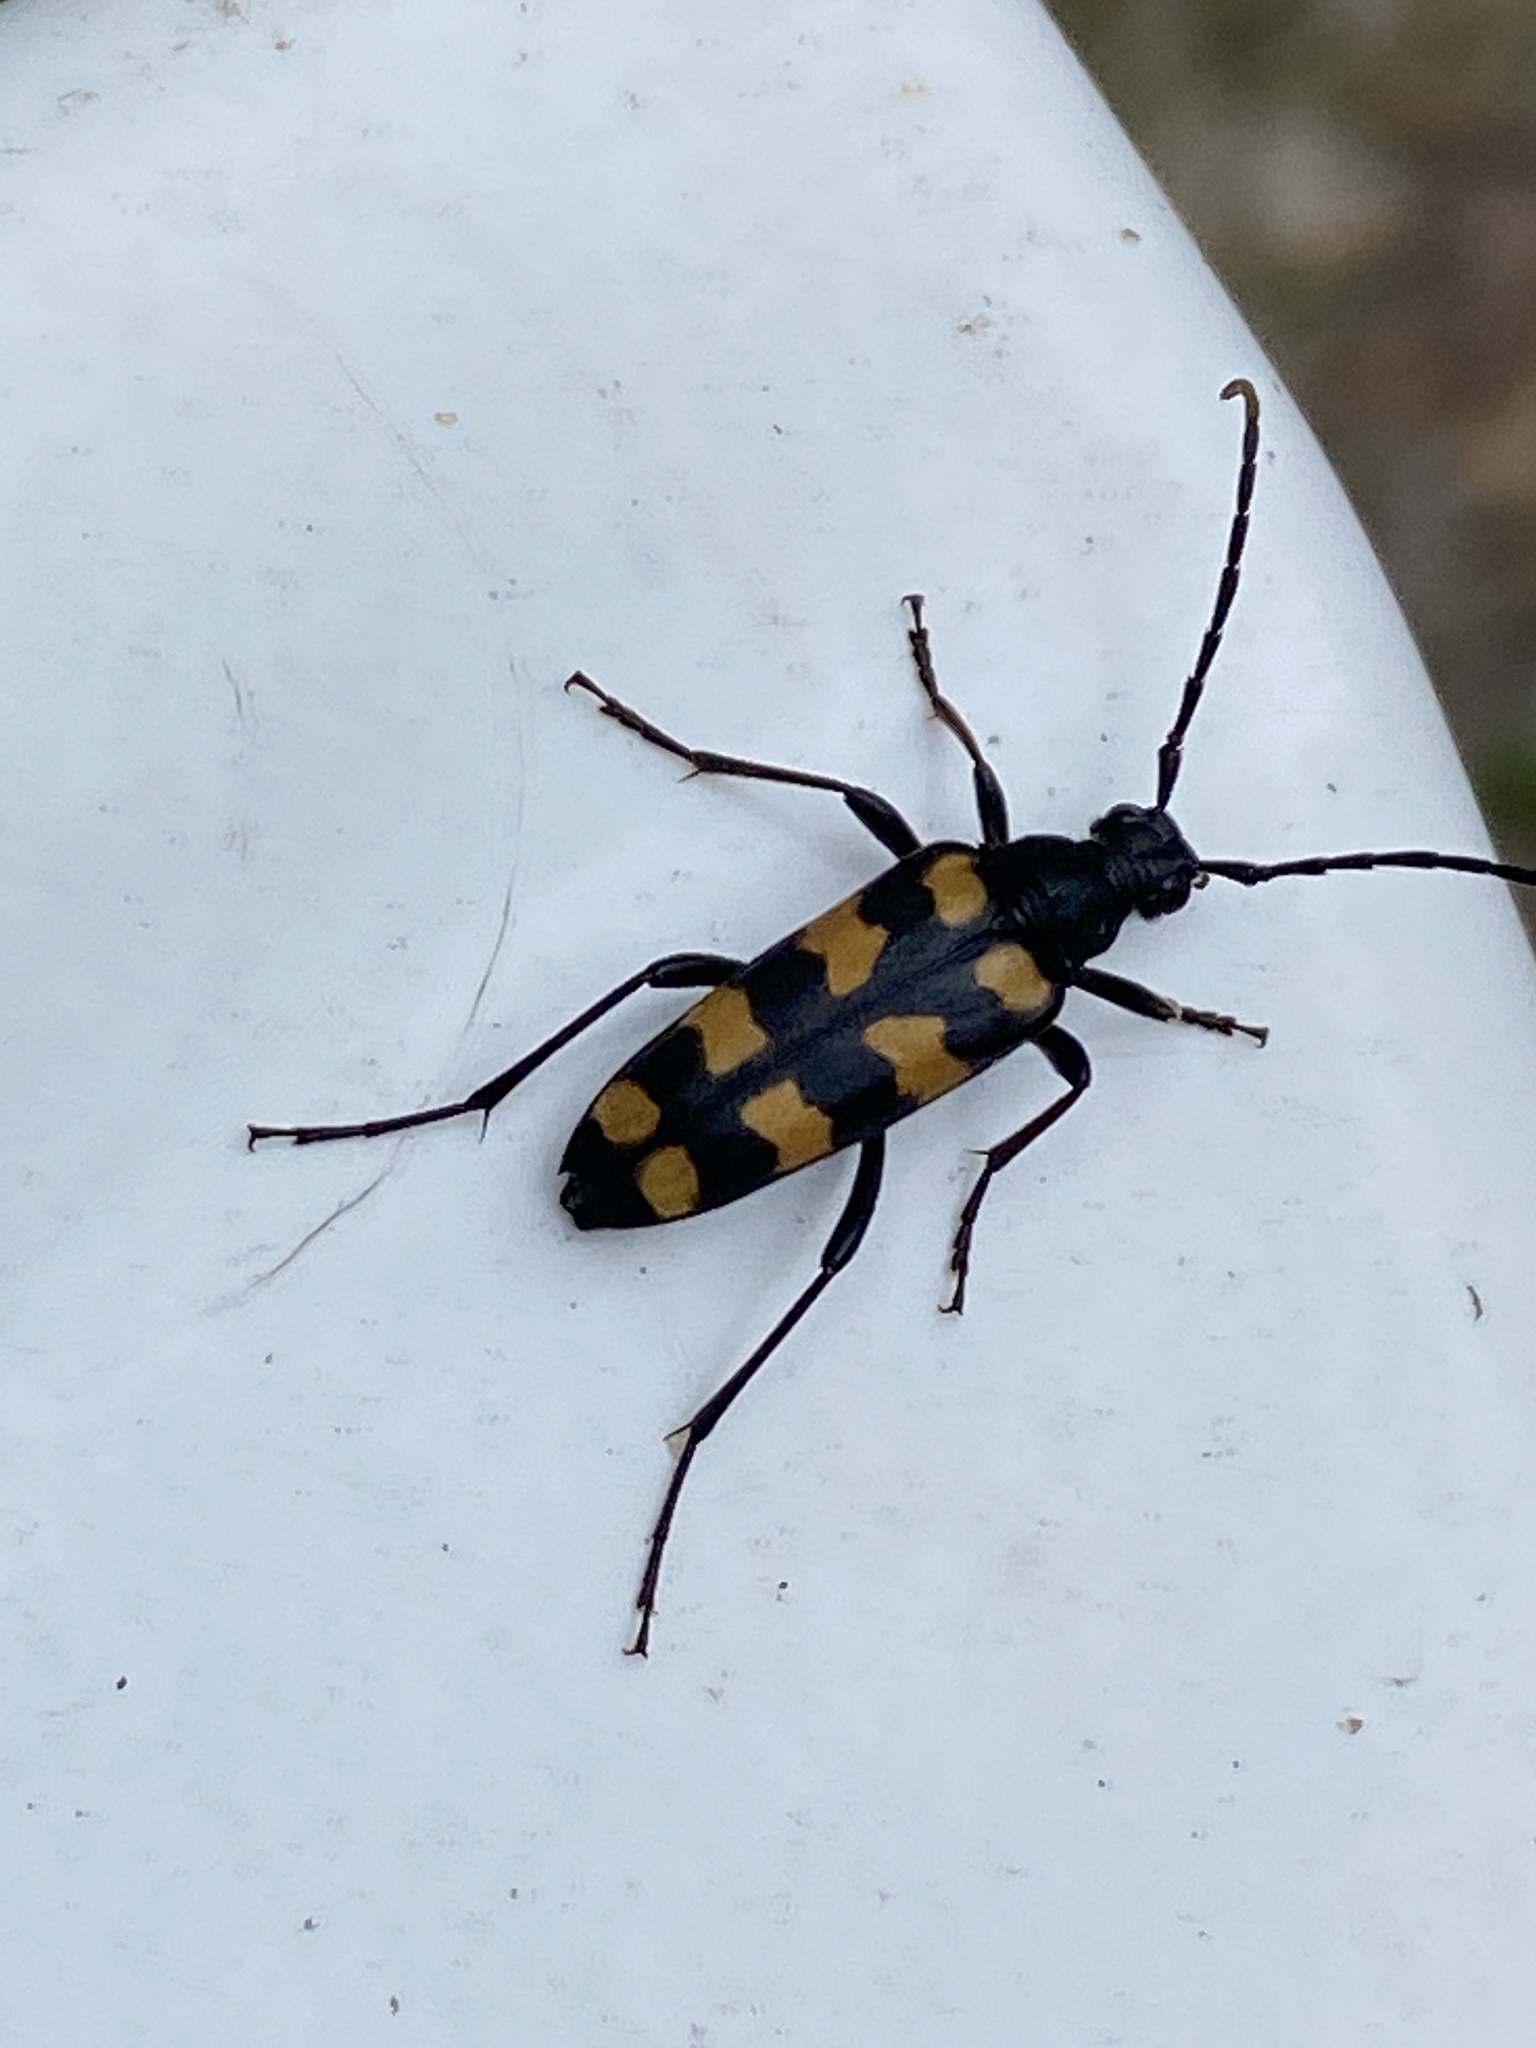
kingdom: Animalia
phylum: Arthropoda
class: Insecta
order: Coleoptera
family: Cerambycidae
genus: Leptura
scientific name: Leptura quadrifasciata
